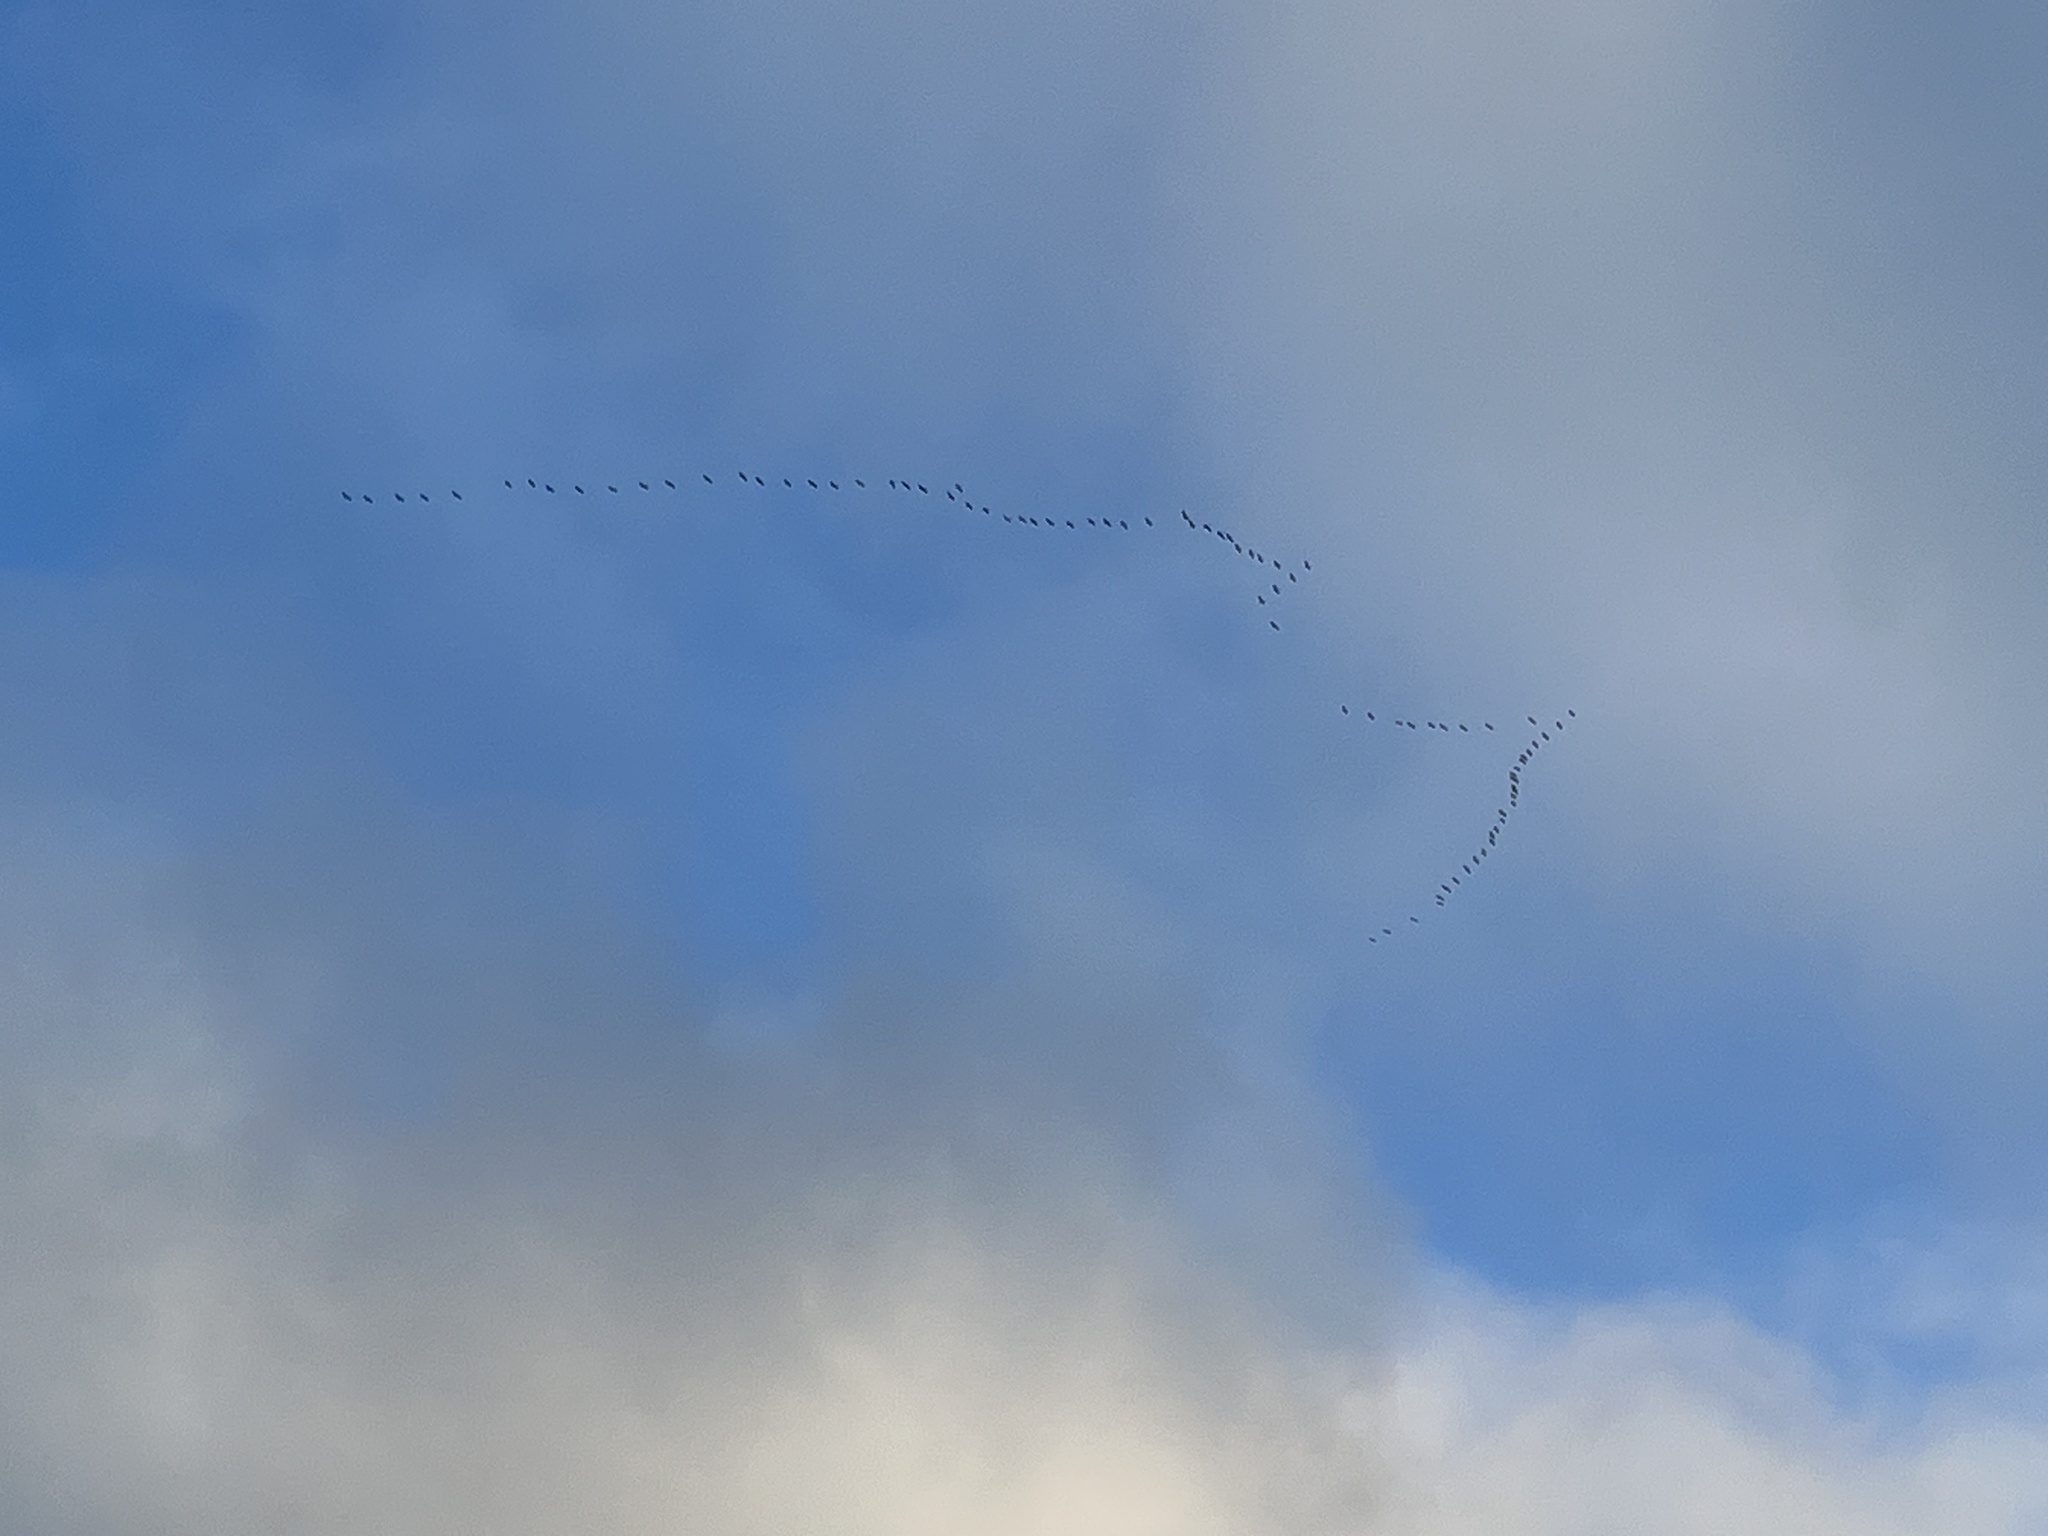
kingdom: Animalia
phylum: Chordata
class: Aves
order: Gruiformes
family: Gruidae
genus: Grus
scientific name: Grus grus
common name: Common crane
